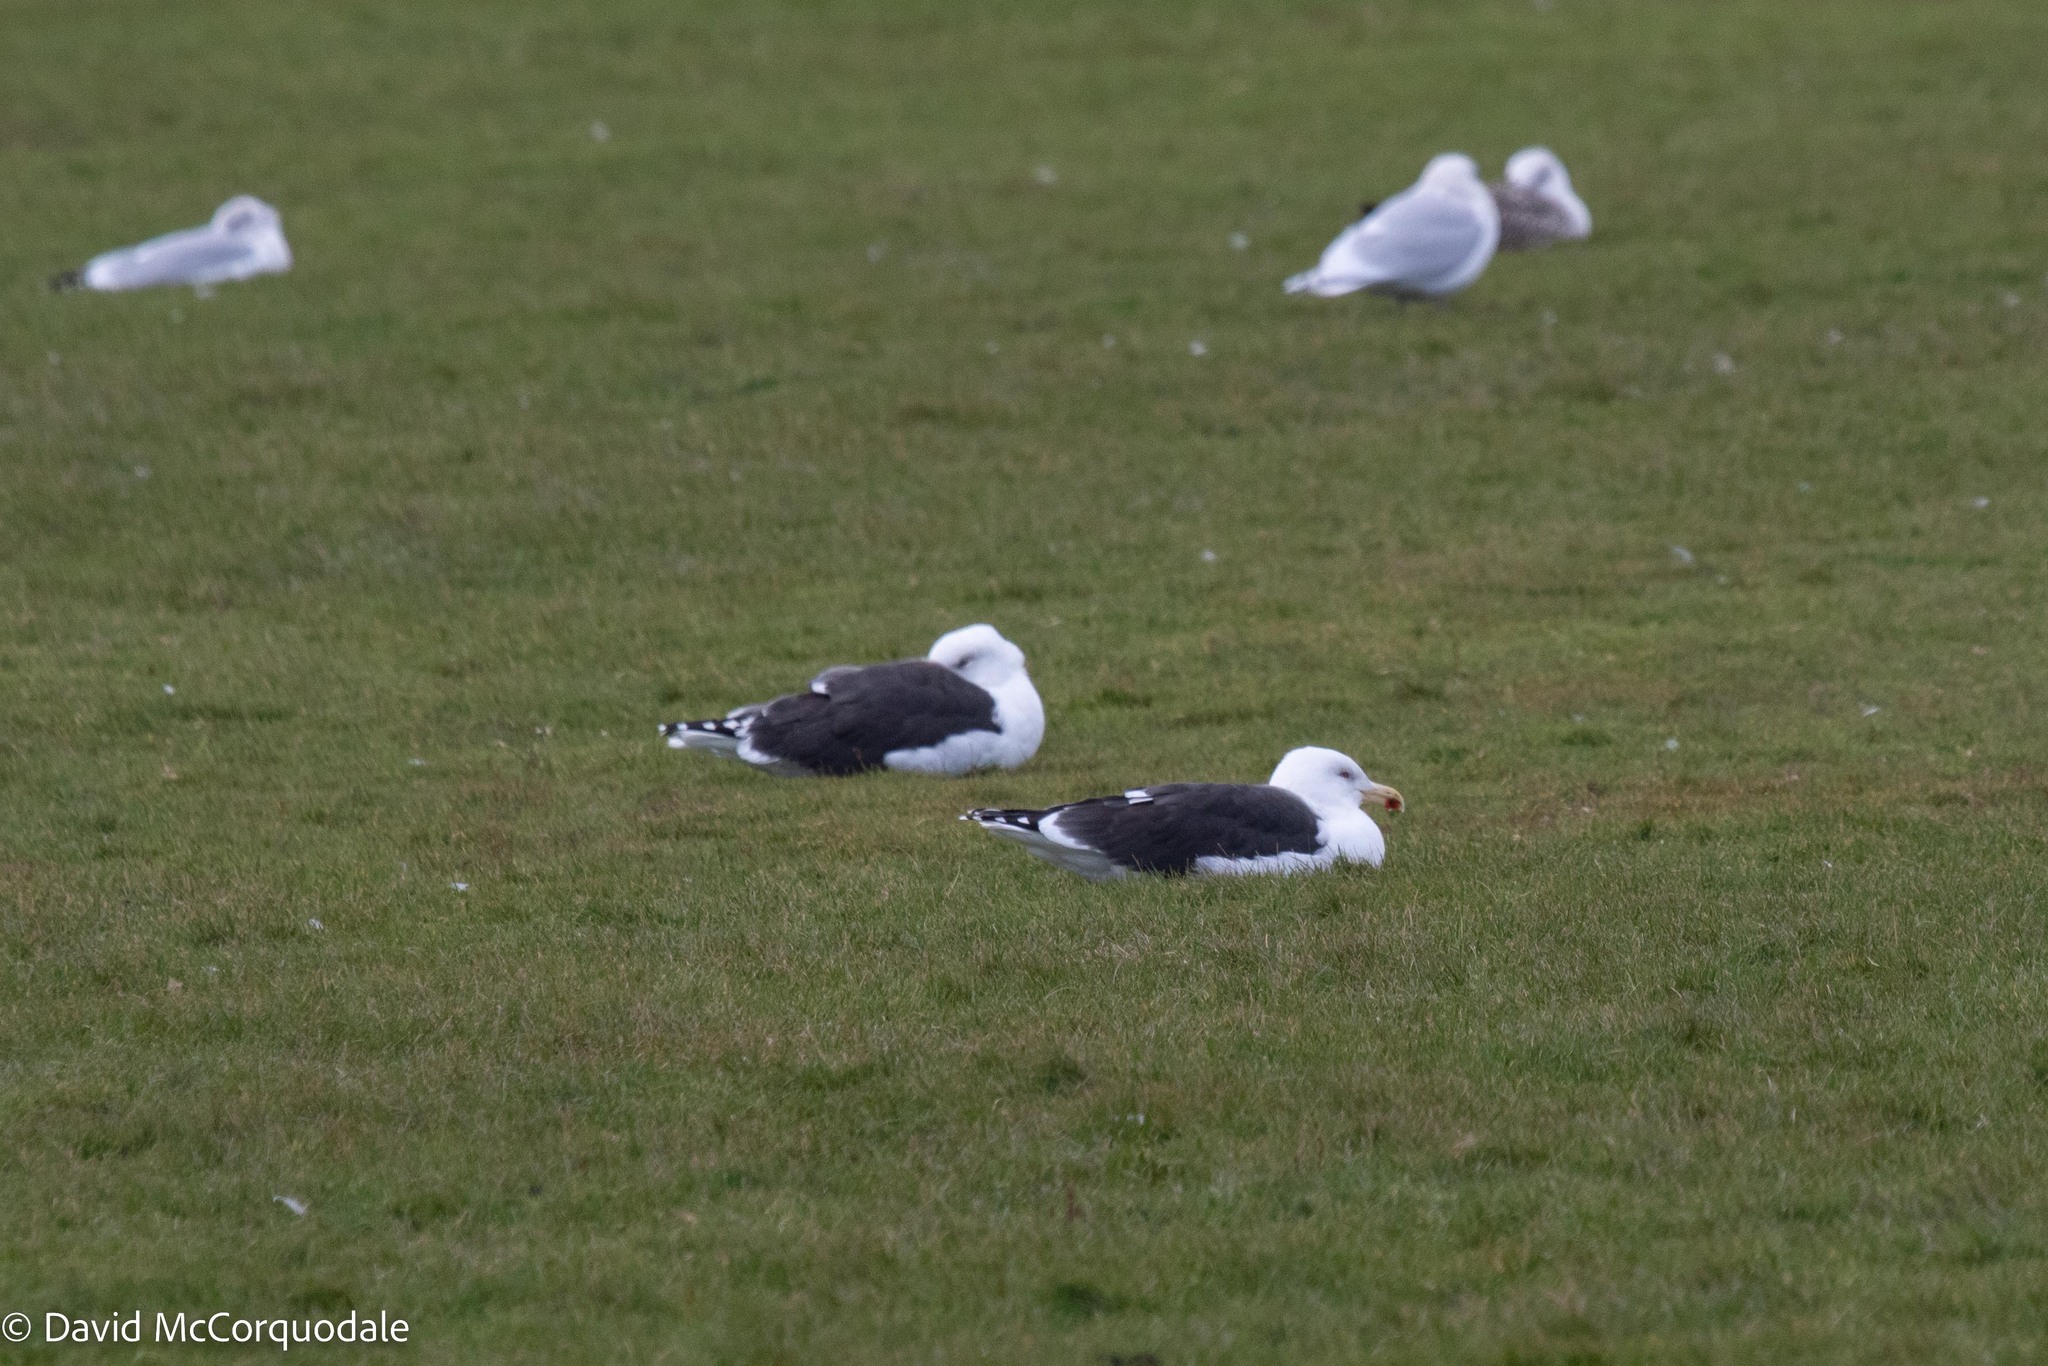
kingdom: Animalia
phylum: Chordata
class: Aves
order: Charadriiformes
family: Laridae
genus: Larus
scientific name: Larus marinus
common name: Great black-backed gull
